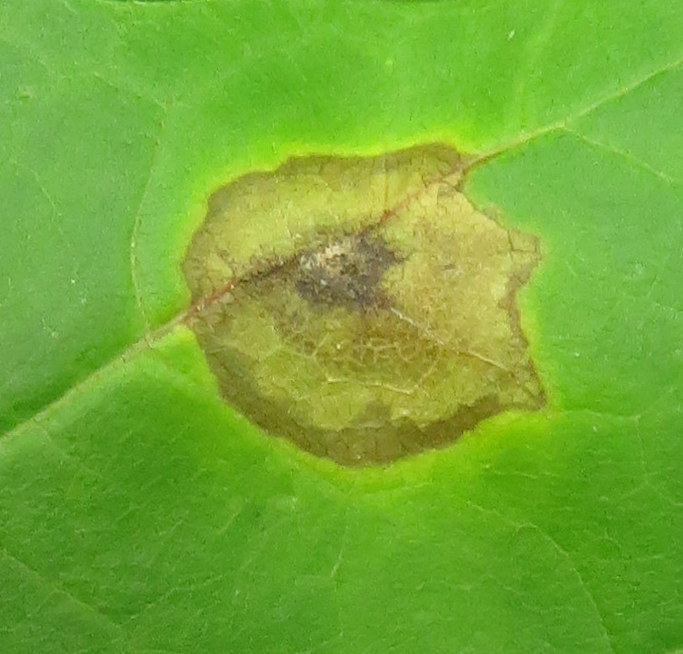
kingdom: Animalia
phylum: Arthropoda
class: Insecta
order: Diptera
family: Cecidomyiidae
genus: Acericecis
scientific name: Acericecis ocellaris
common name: Ocellate gall midge
